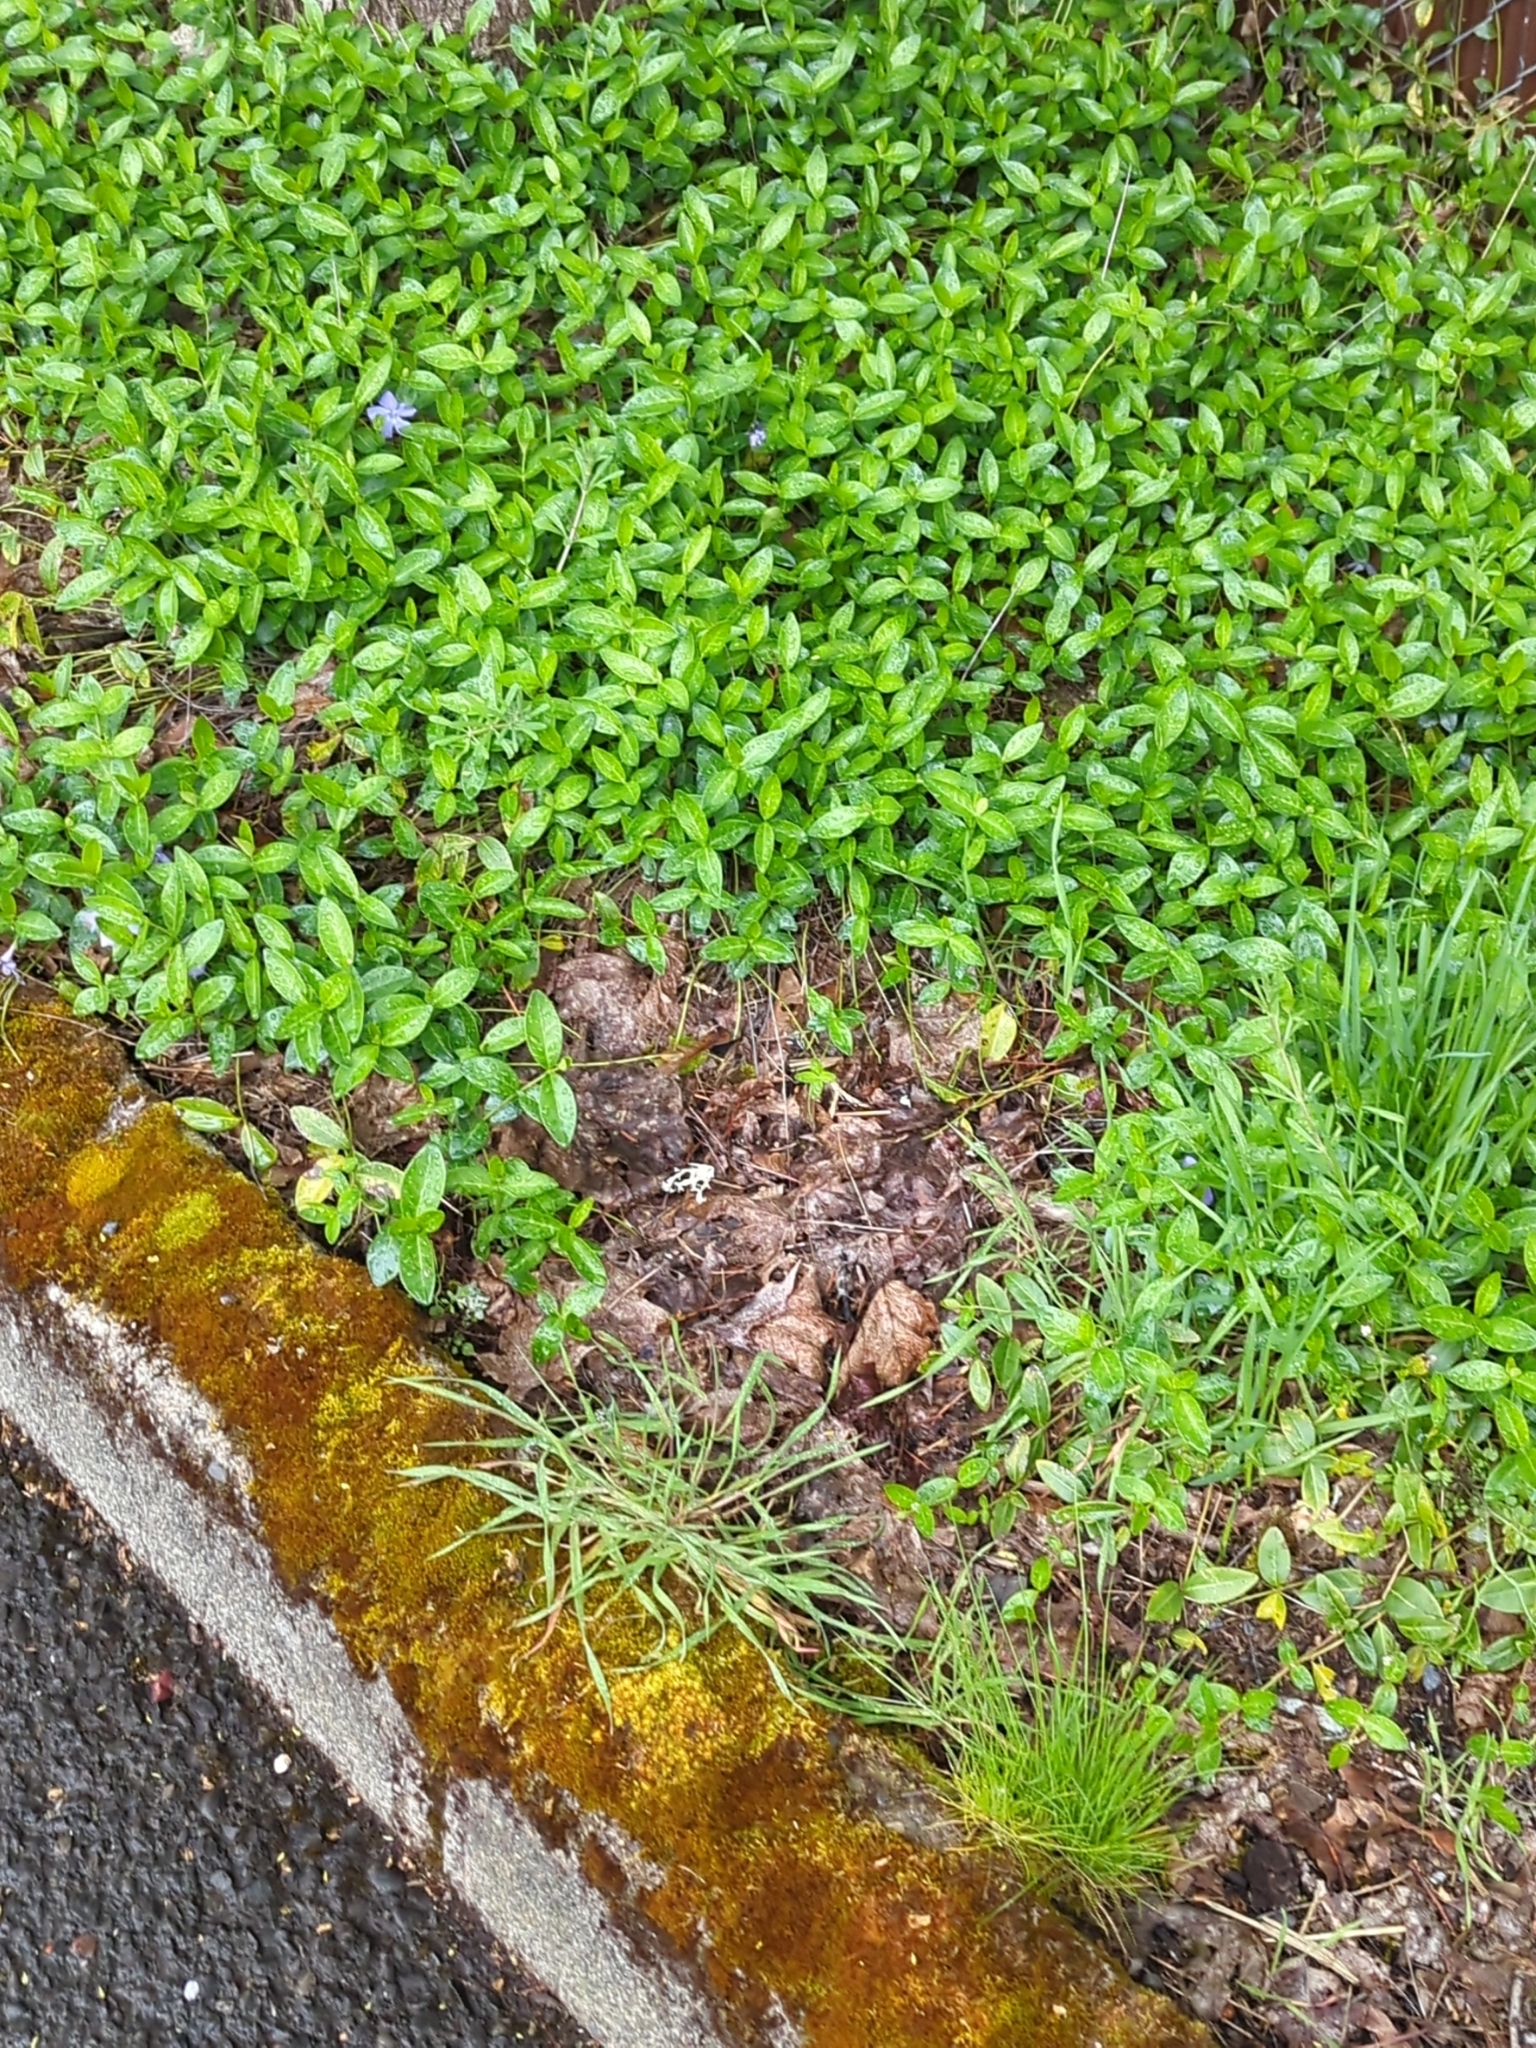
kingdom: Plantae
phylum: Tracheophyta
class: Magnoliopsida
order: Gentianales
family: Apocynaceae
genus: Vinca
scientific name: Vinca minor
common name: Lesser periwinkle
